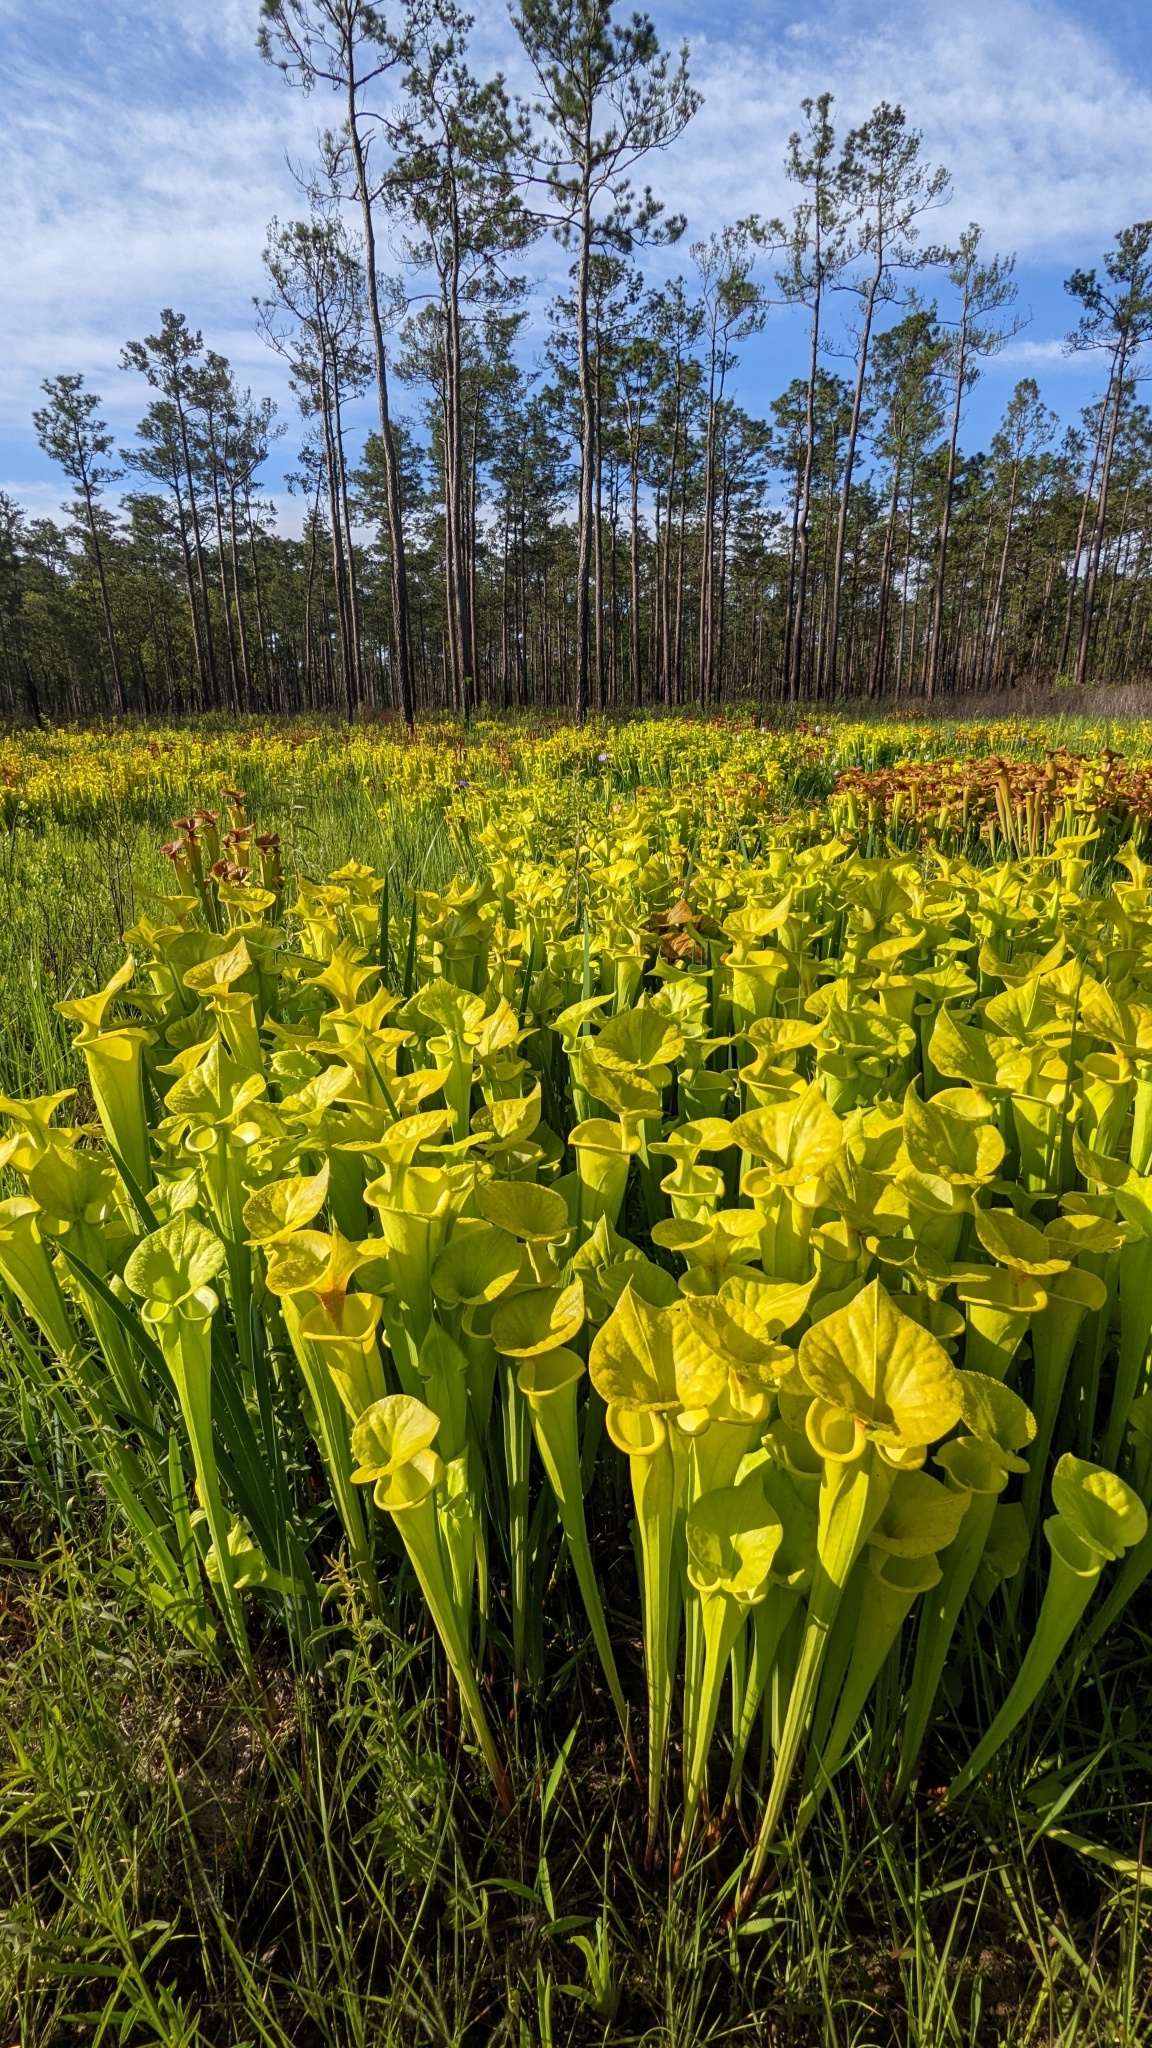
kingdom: Plantae
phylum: Tracheophyta
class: Magnoliopsida
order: Ericales
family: Sarraceniaceae
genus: Sarracenia
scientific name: Sarracenia flava
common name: Trumpets
